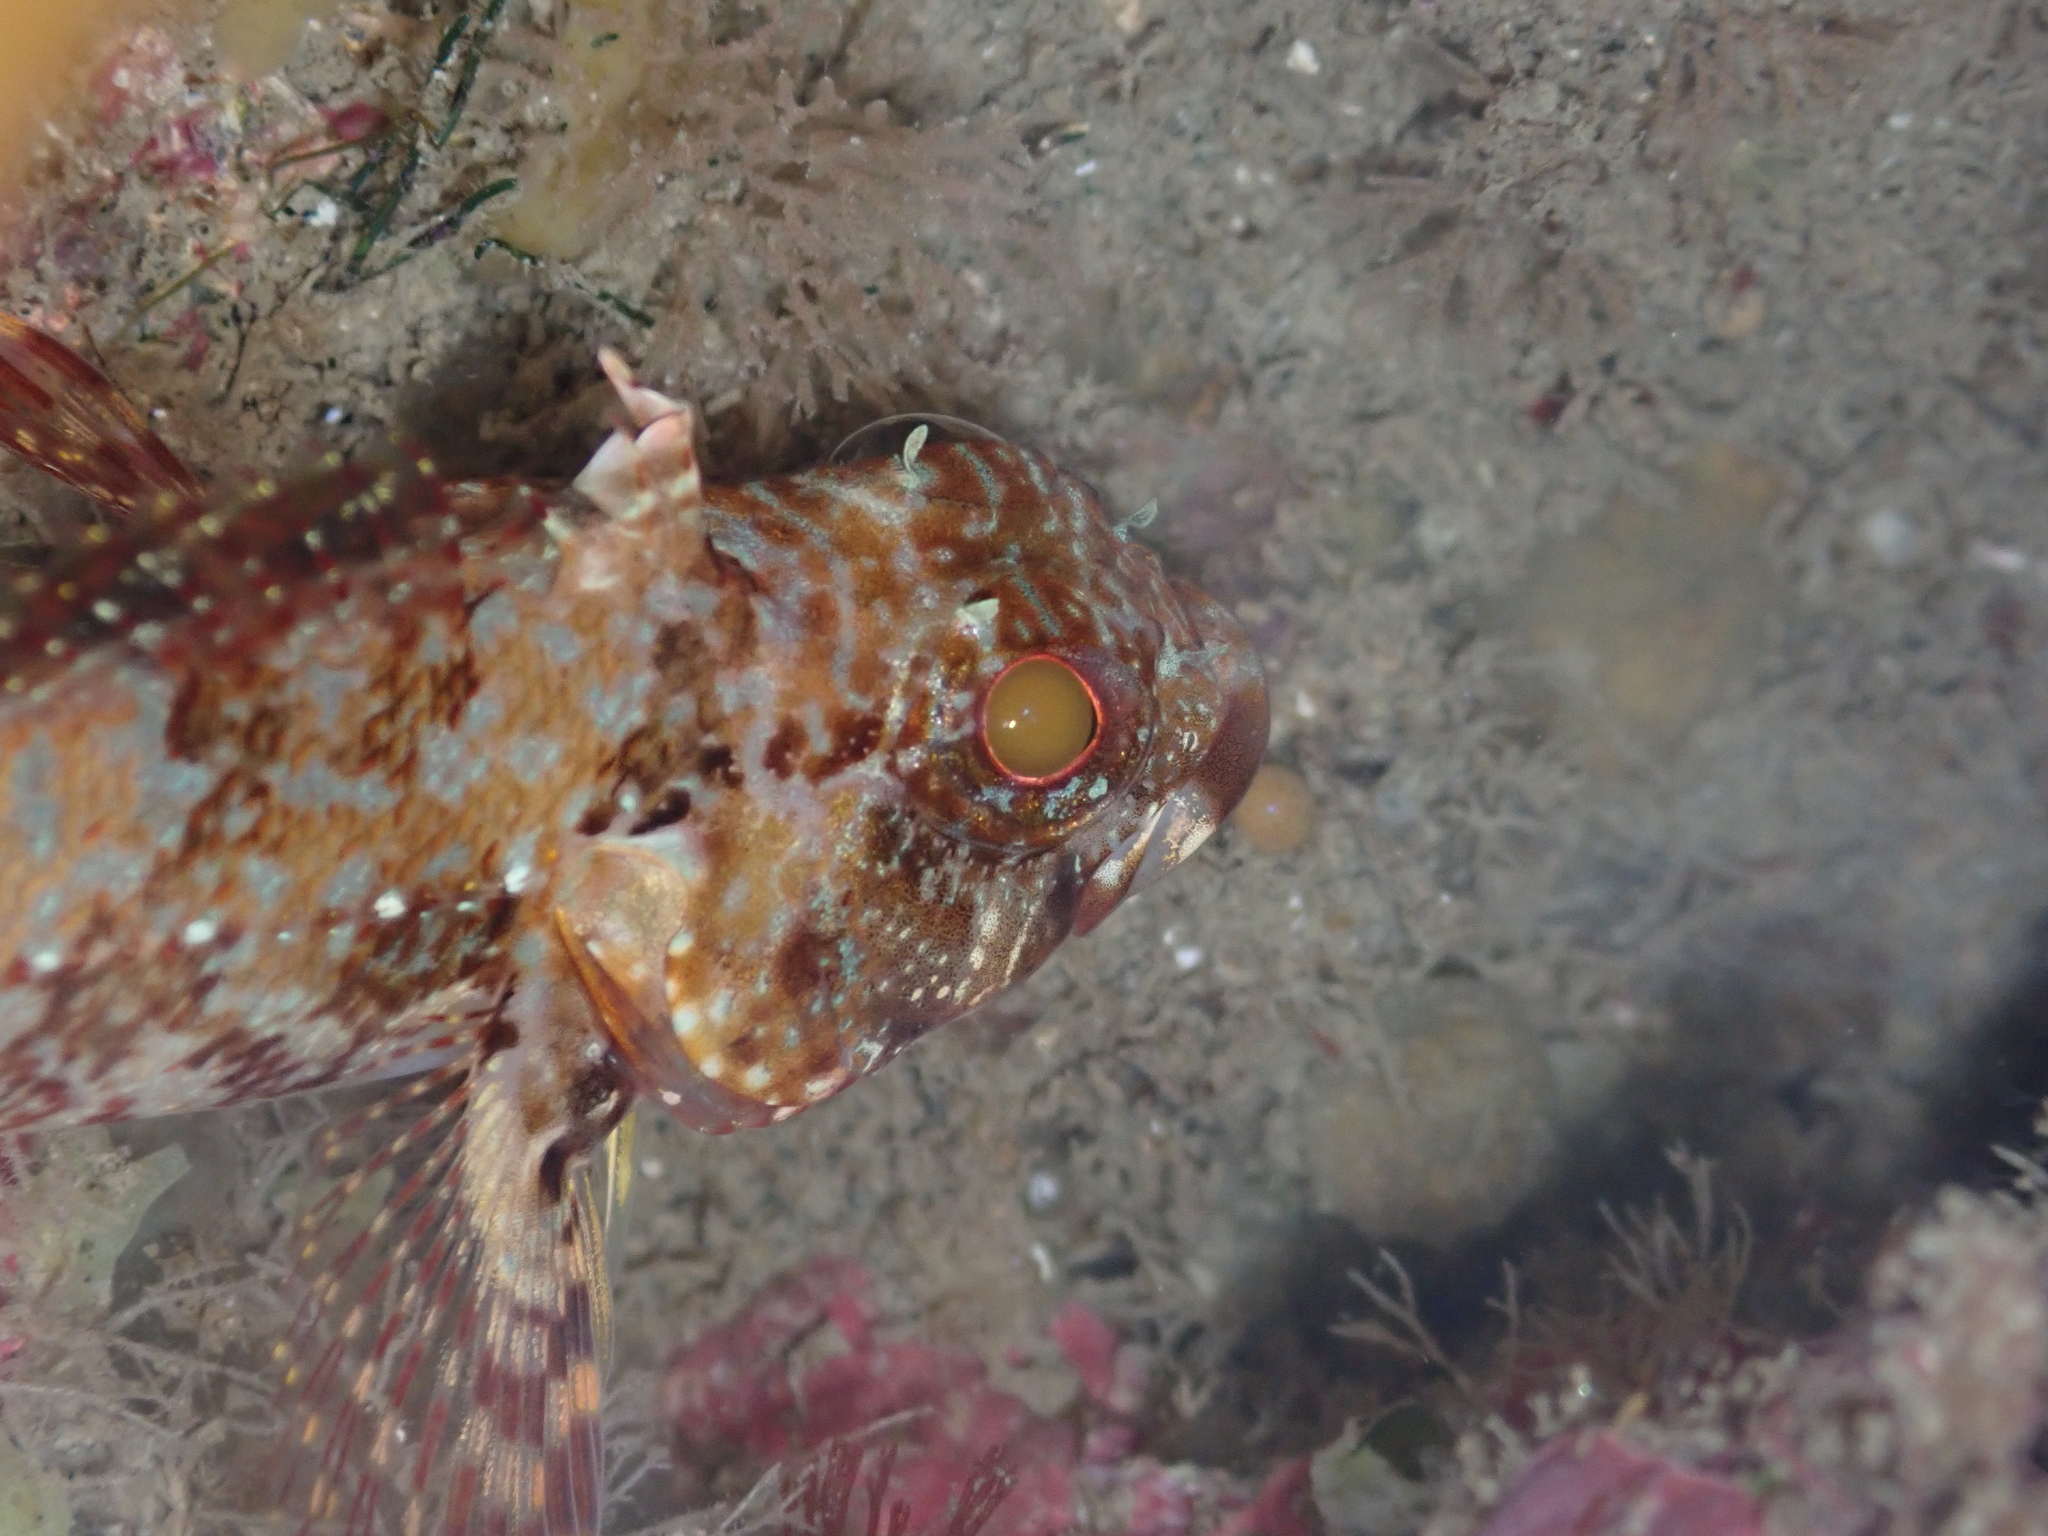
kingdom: Animalia
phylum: Chordata
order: Perciformes
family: Tripterygiidae
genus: Karalepis
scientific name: Karalepis stewarti
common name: Scaly headed triplefin
